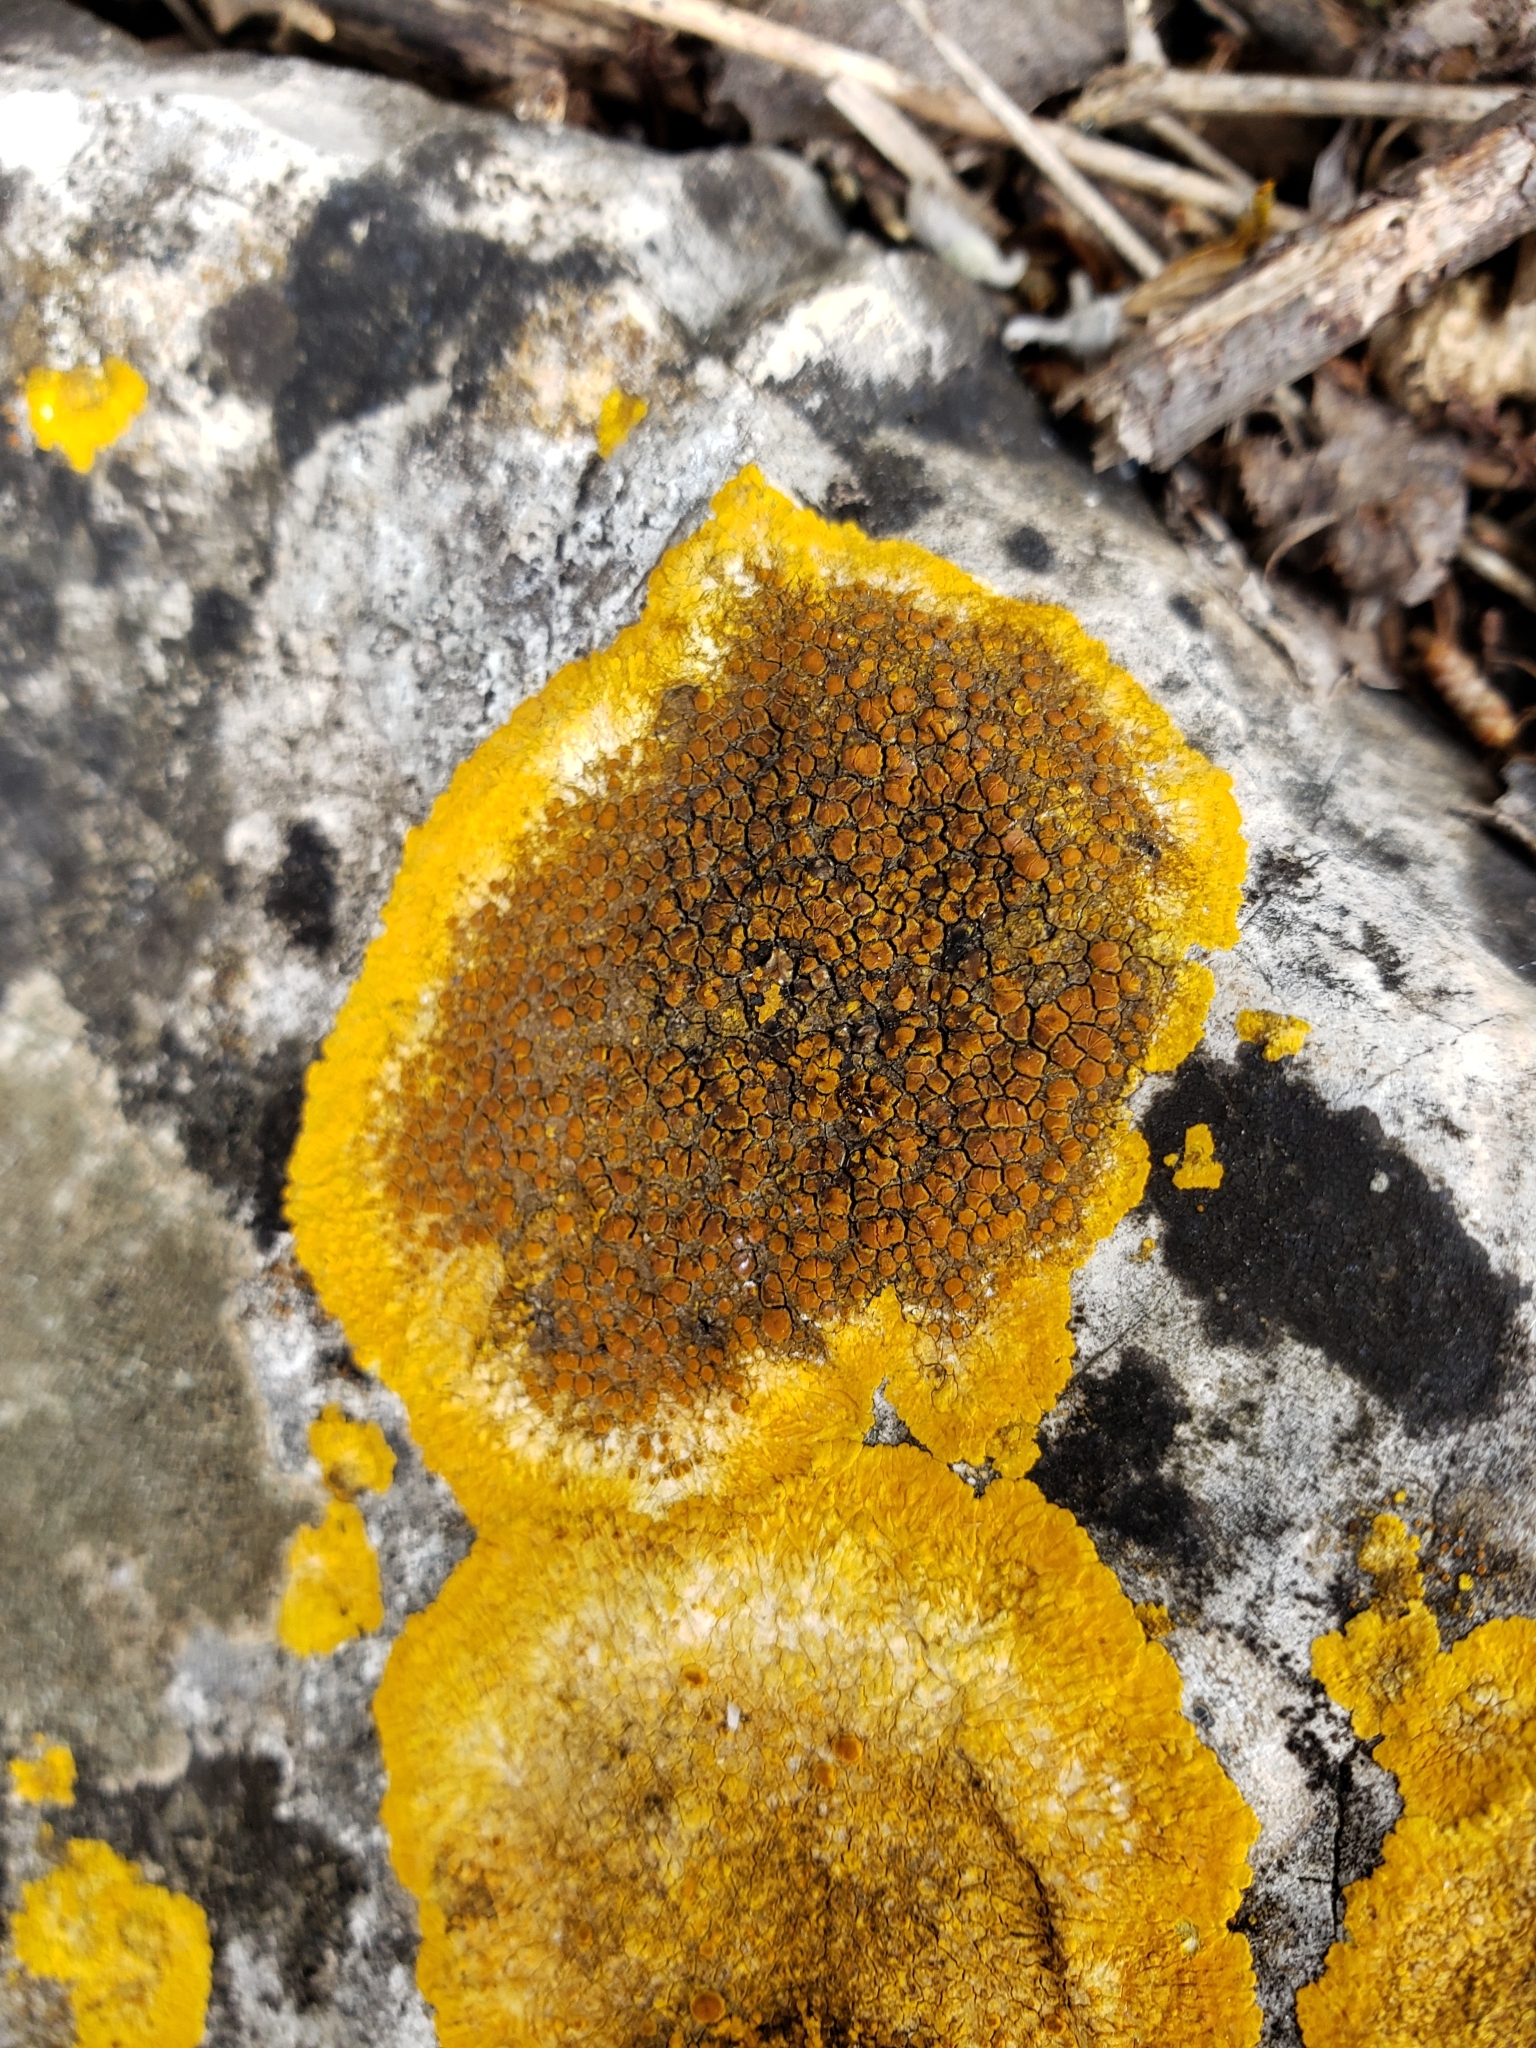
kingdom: Fungi
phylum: Ascomycota
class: Lecanoromycetes
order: Teloschistales
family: Teloschistaceae
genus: Variospora
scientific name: Variospora aurantia
